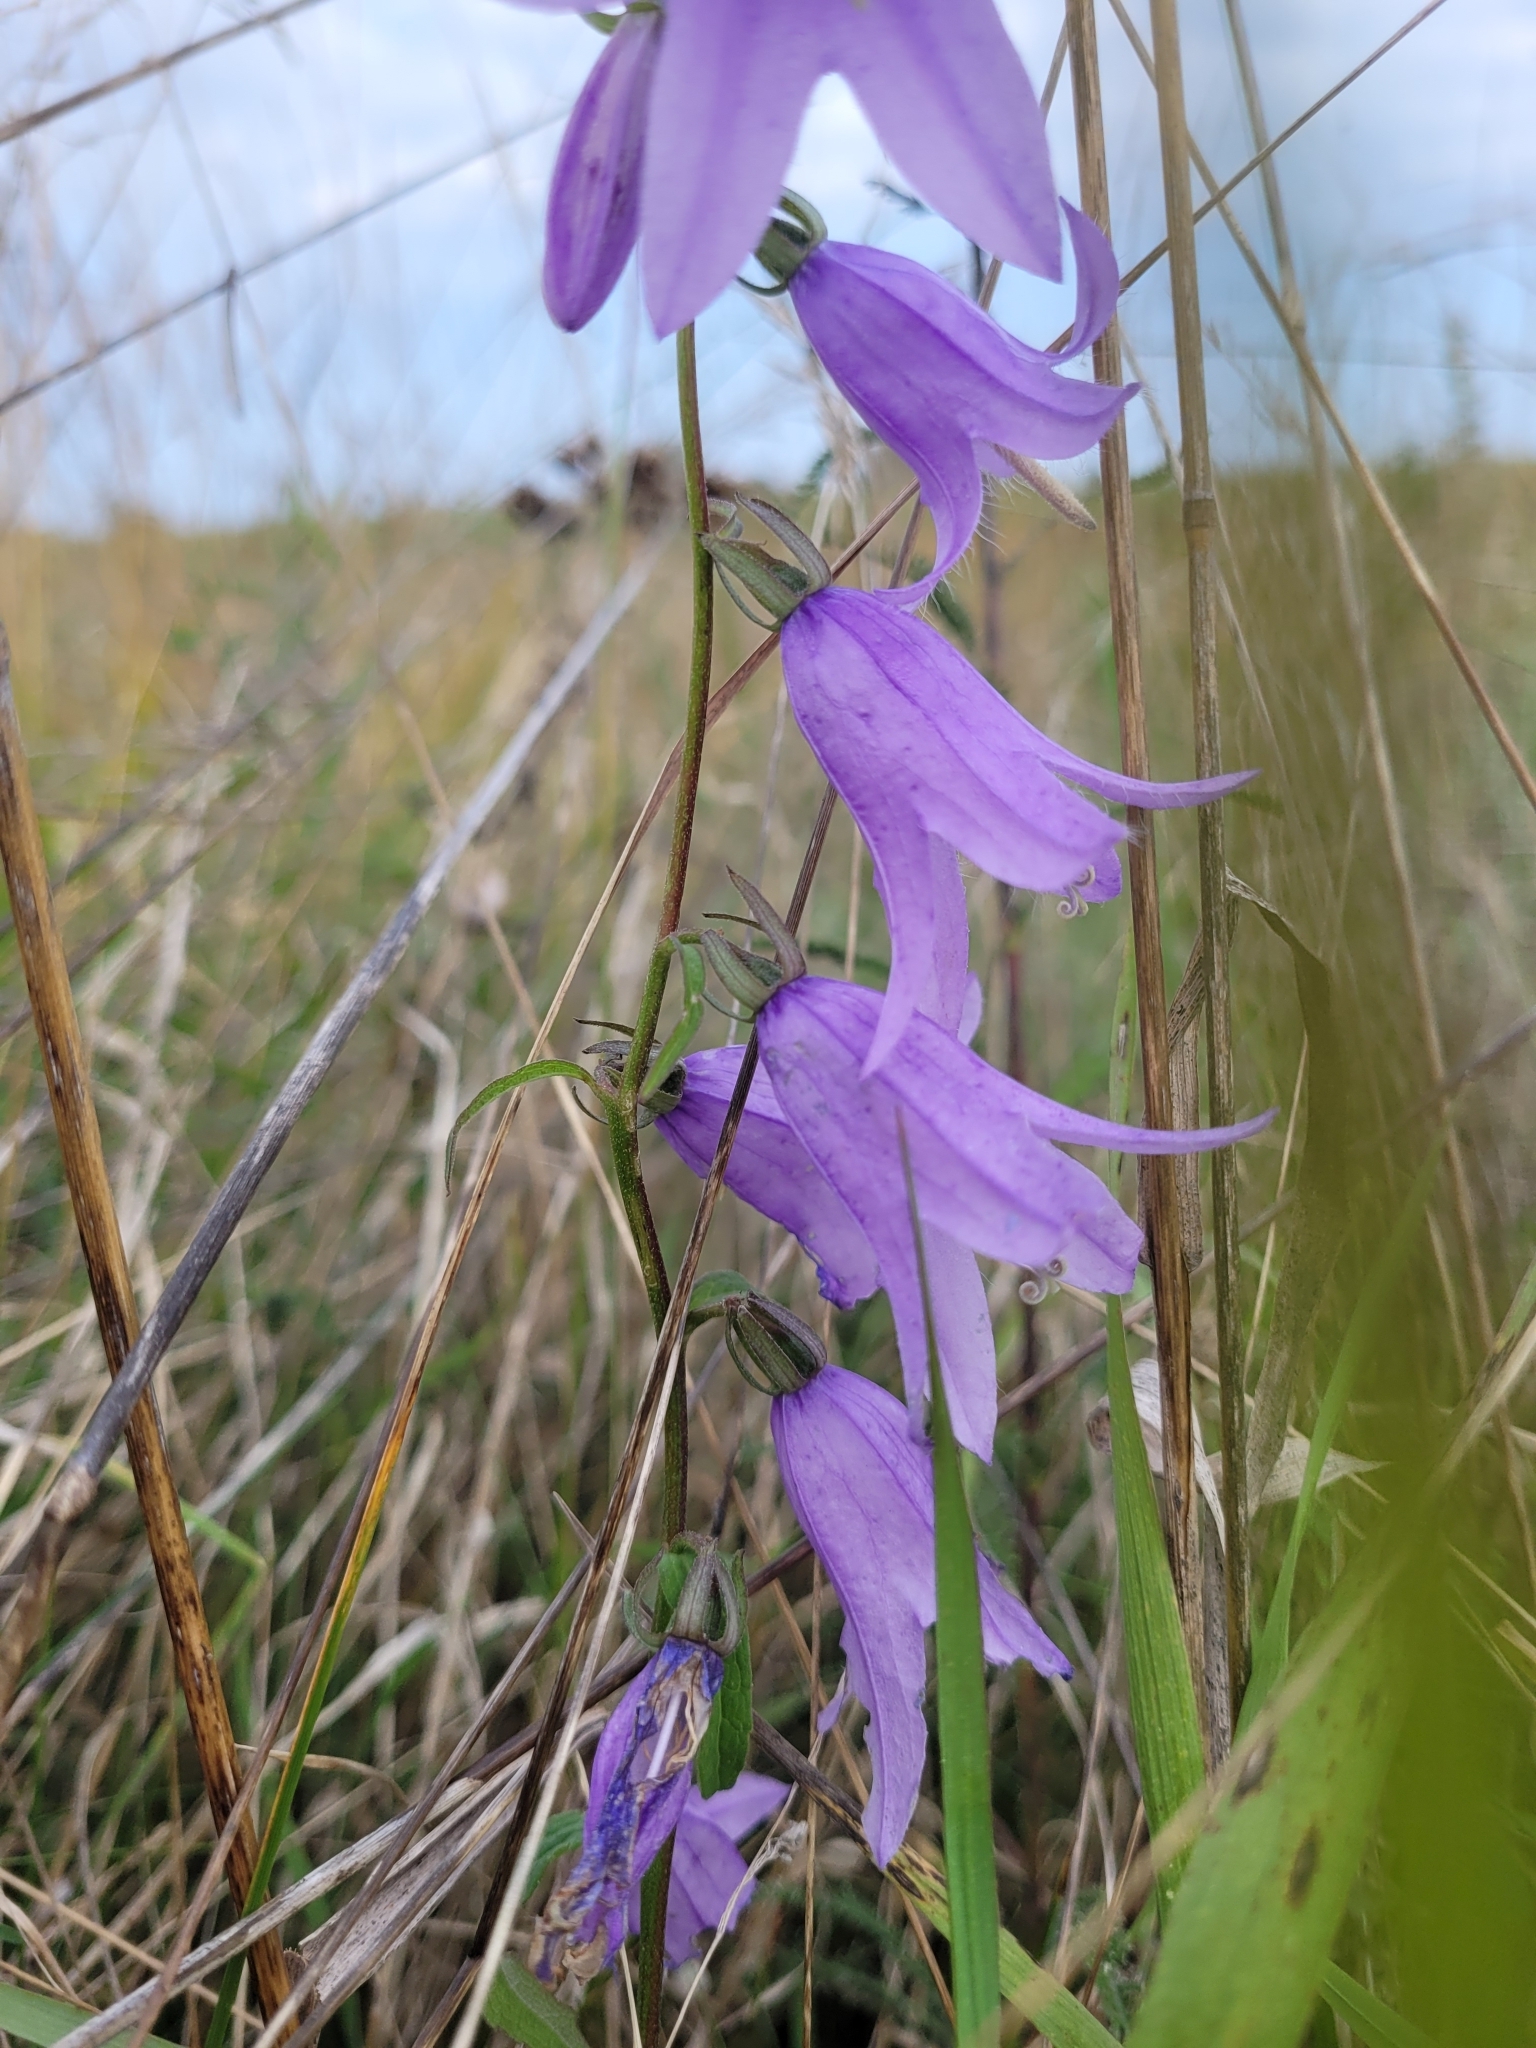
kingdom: Plantae
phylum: Tracheophyta
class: Magnoliopsida
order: Asterales
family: Campanulaceae
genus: Campanula
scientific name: Campanula rapunculoides
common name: Creeping bellflower
